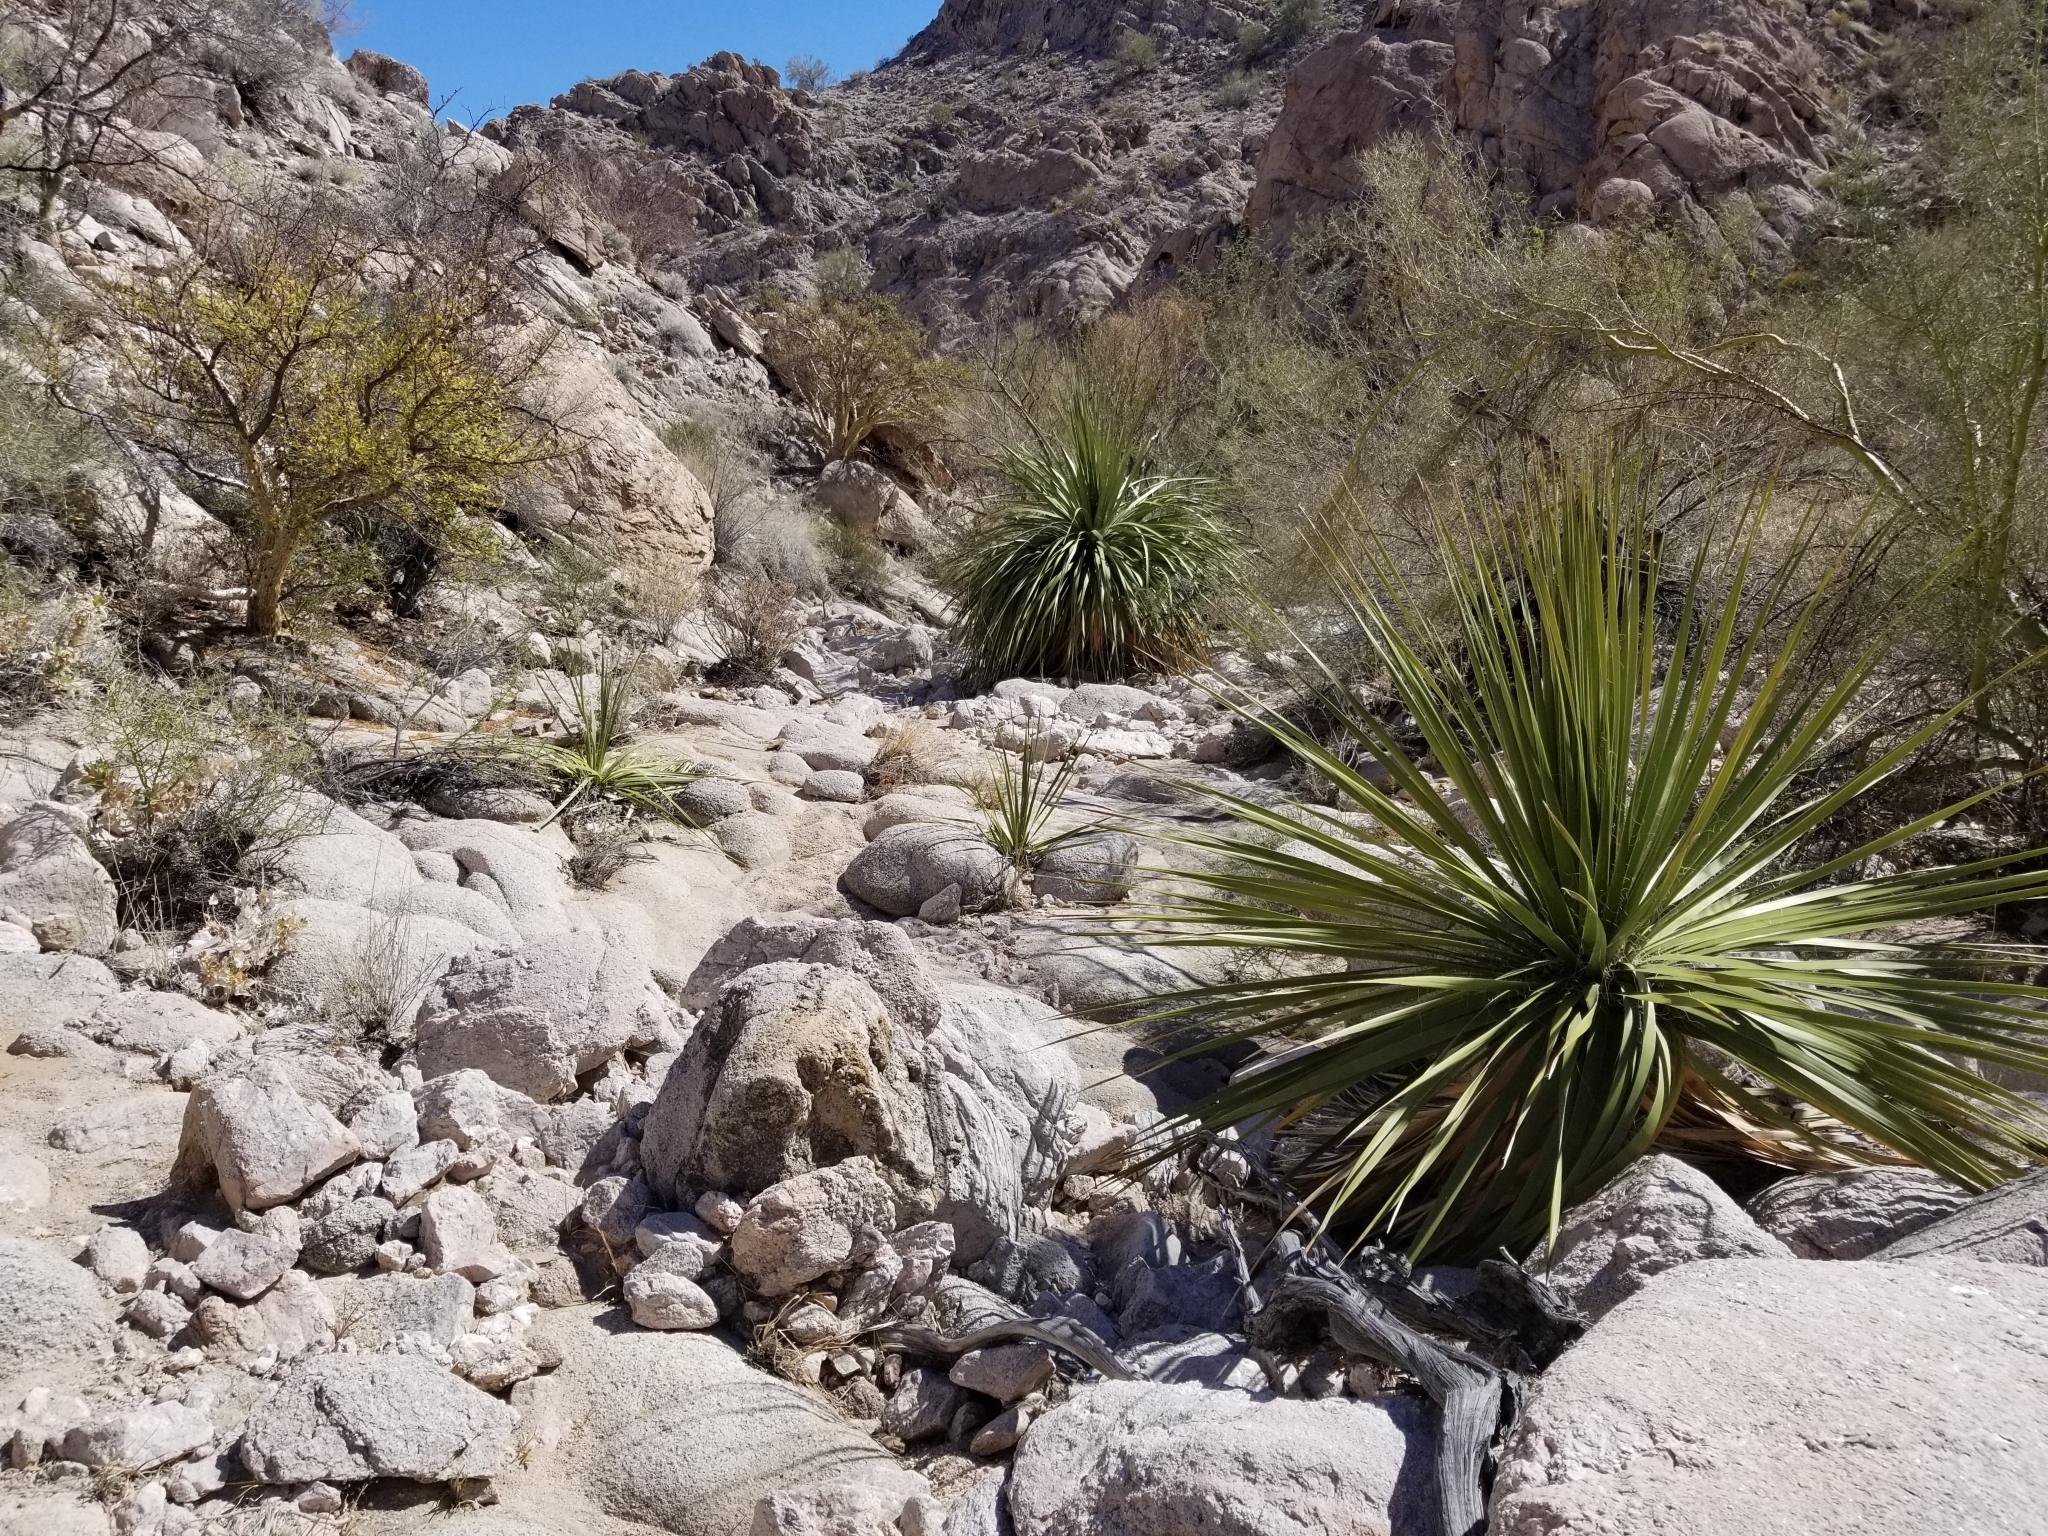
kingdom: Plantae
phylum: Tracheophyta
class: Liliopsida
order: Asparagales
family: Asparagaceae
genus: Nolina
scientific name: Nolina bigelovii
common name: Bigelow bear-grass
